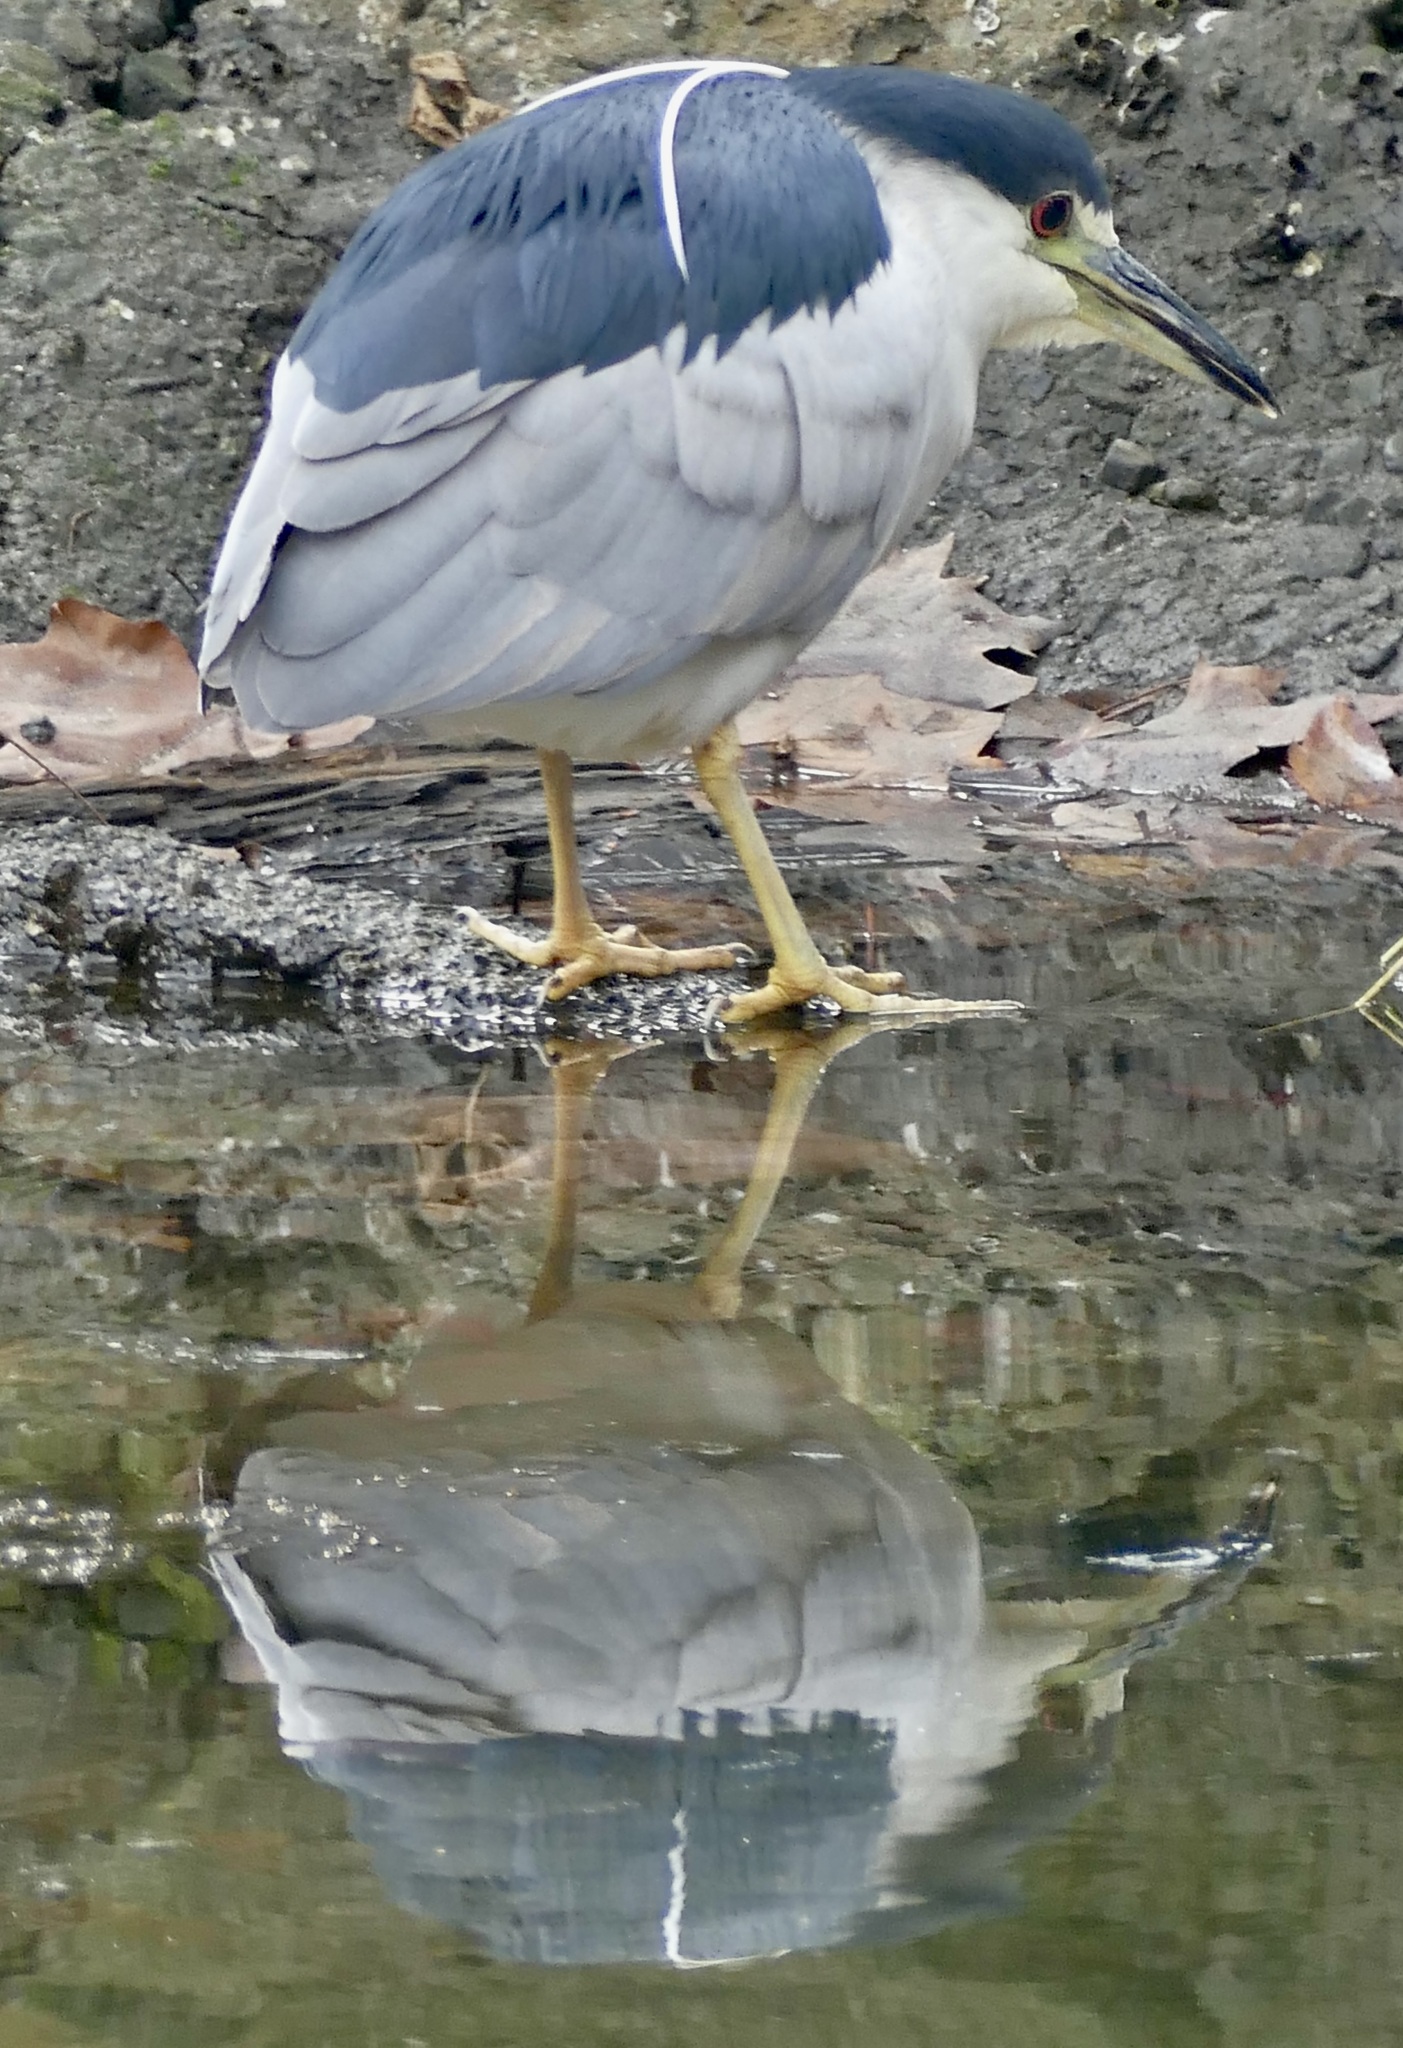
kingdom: Animalia
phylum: Chordata
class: Aves
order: Pelecaniformes
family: Ardeidae
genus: Nycticorax
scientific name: Nycticorax nycticorax
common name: Black-crowned night heron
